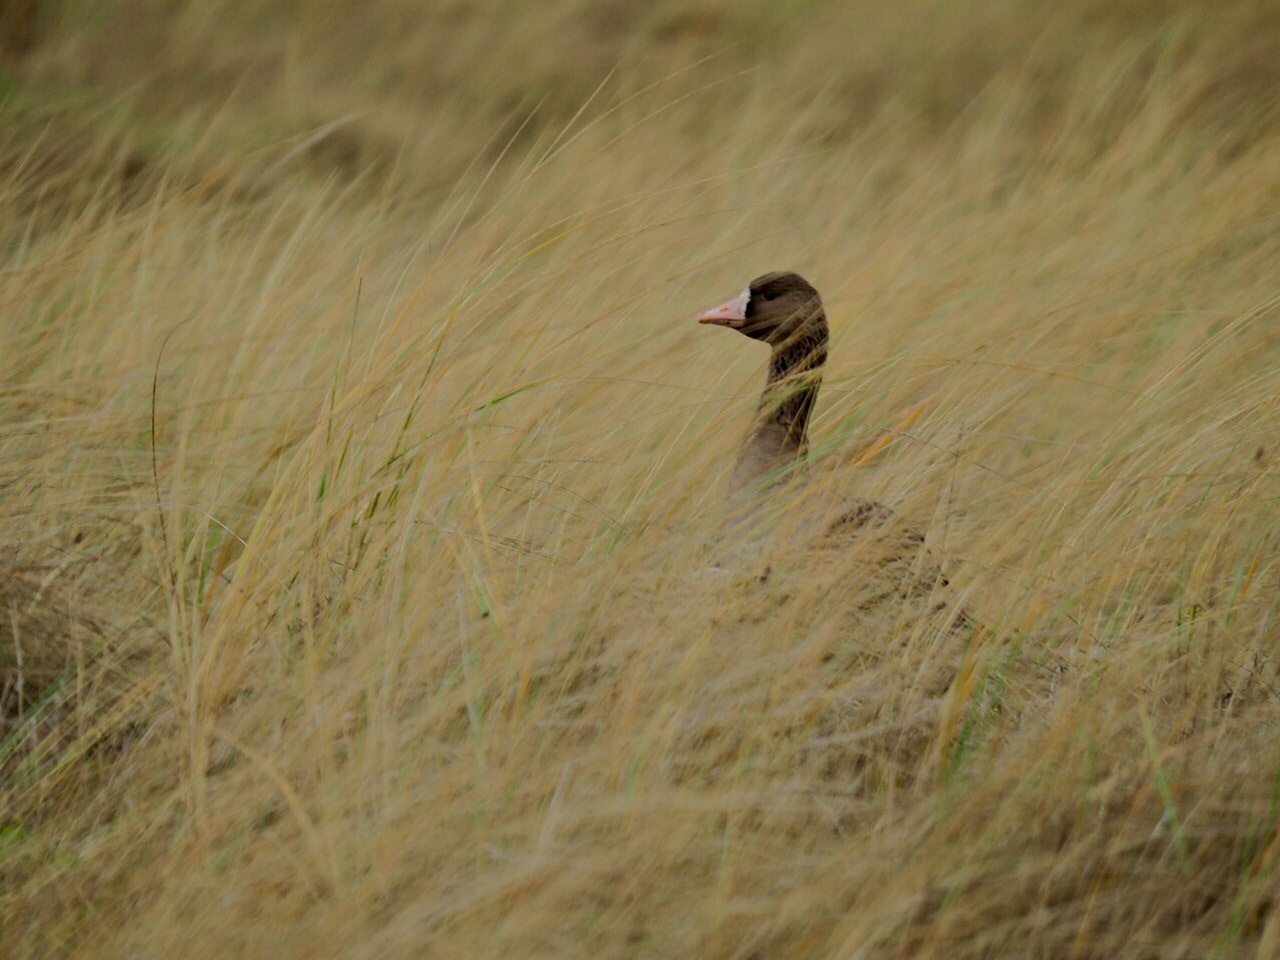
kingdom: Animalia
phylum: Chordata
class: Aves
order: Anseriformes
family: Anatidae
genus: Anser
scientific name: Anser albifrons
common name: Greater white-fronted goose
